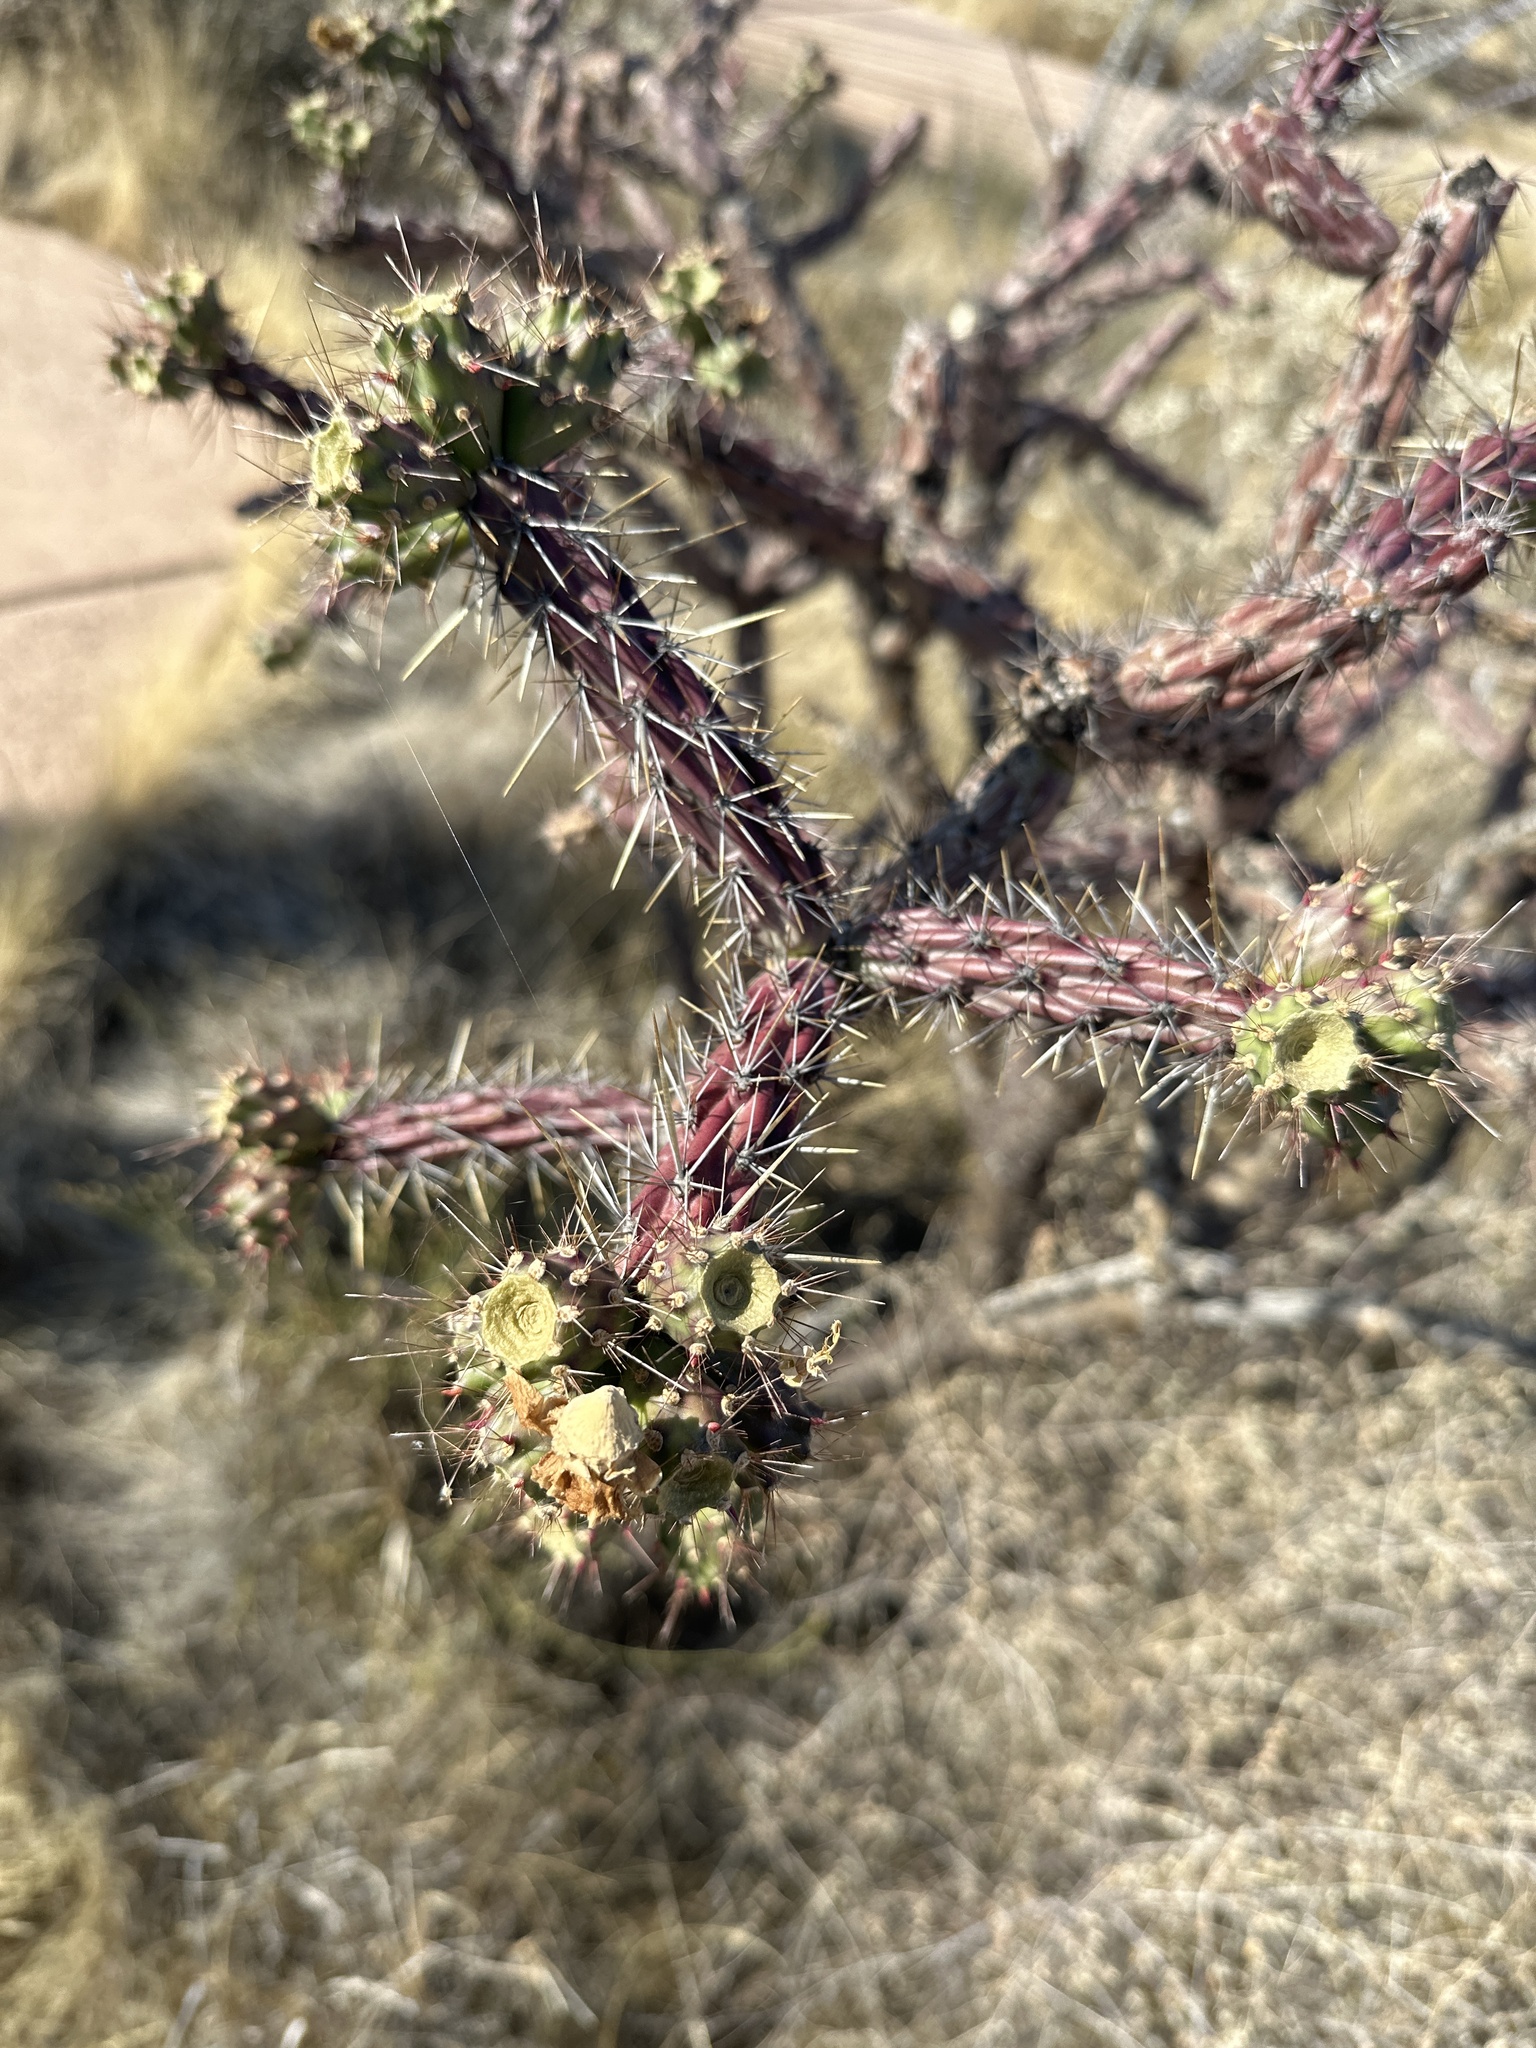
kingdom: Plantae
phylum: Tracheophyta
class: Magnoliopsida
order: Caryophyllales
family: Cactaceae
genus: Cylindropuntia
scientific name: Cylindropuntia thurberi
